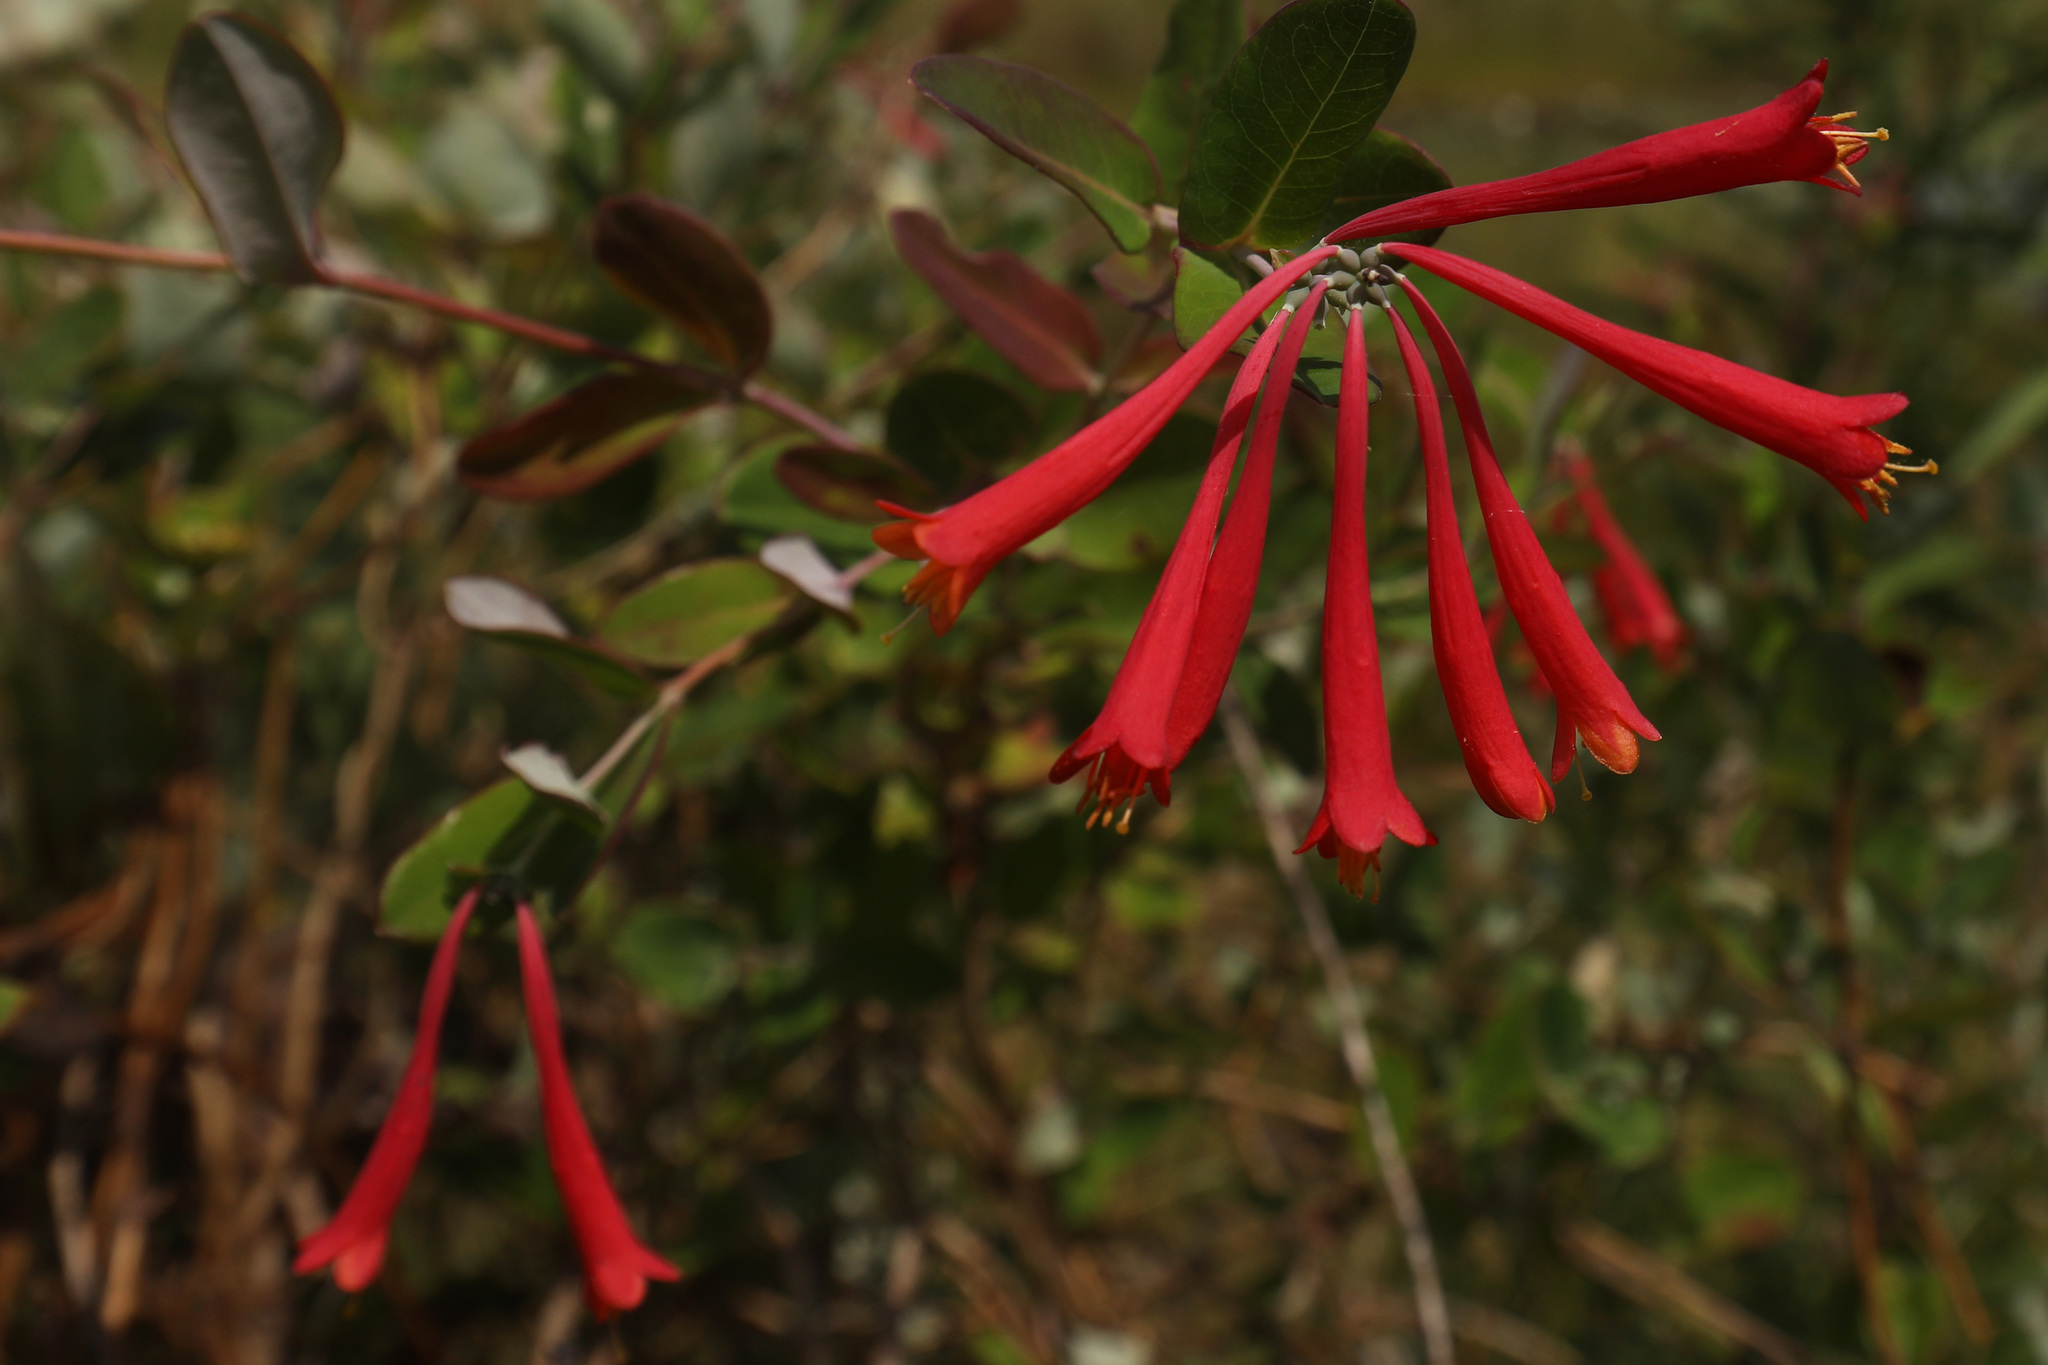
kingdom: Plantae
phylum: Tracheophyta
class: Magnoliopsida
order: Dipsacales
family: Caprifoliaceae
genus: Lonicera
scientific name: Lonicera sempervirens
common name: Coral honeysuckle
